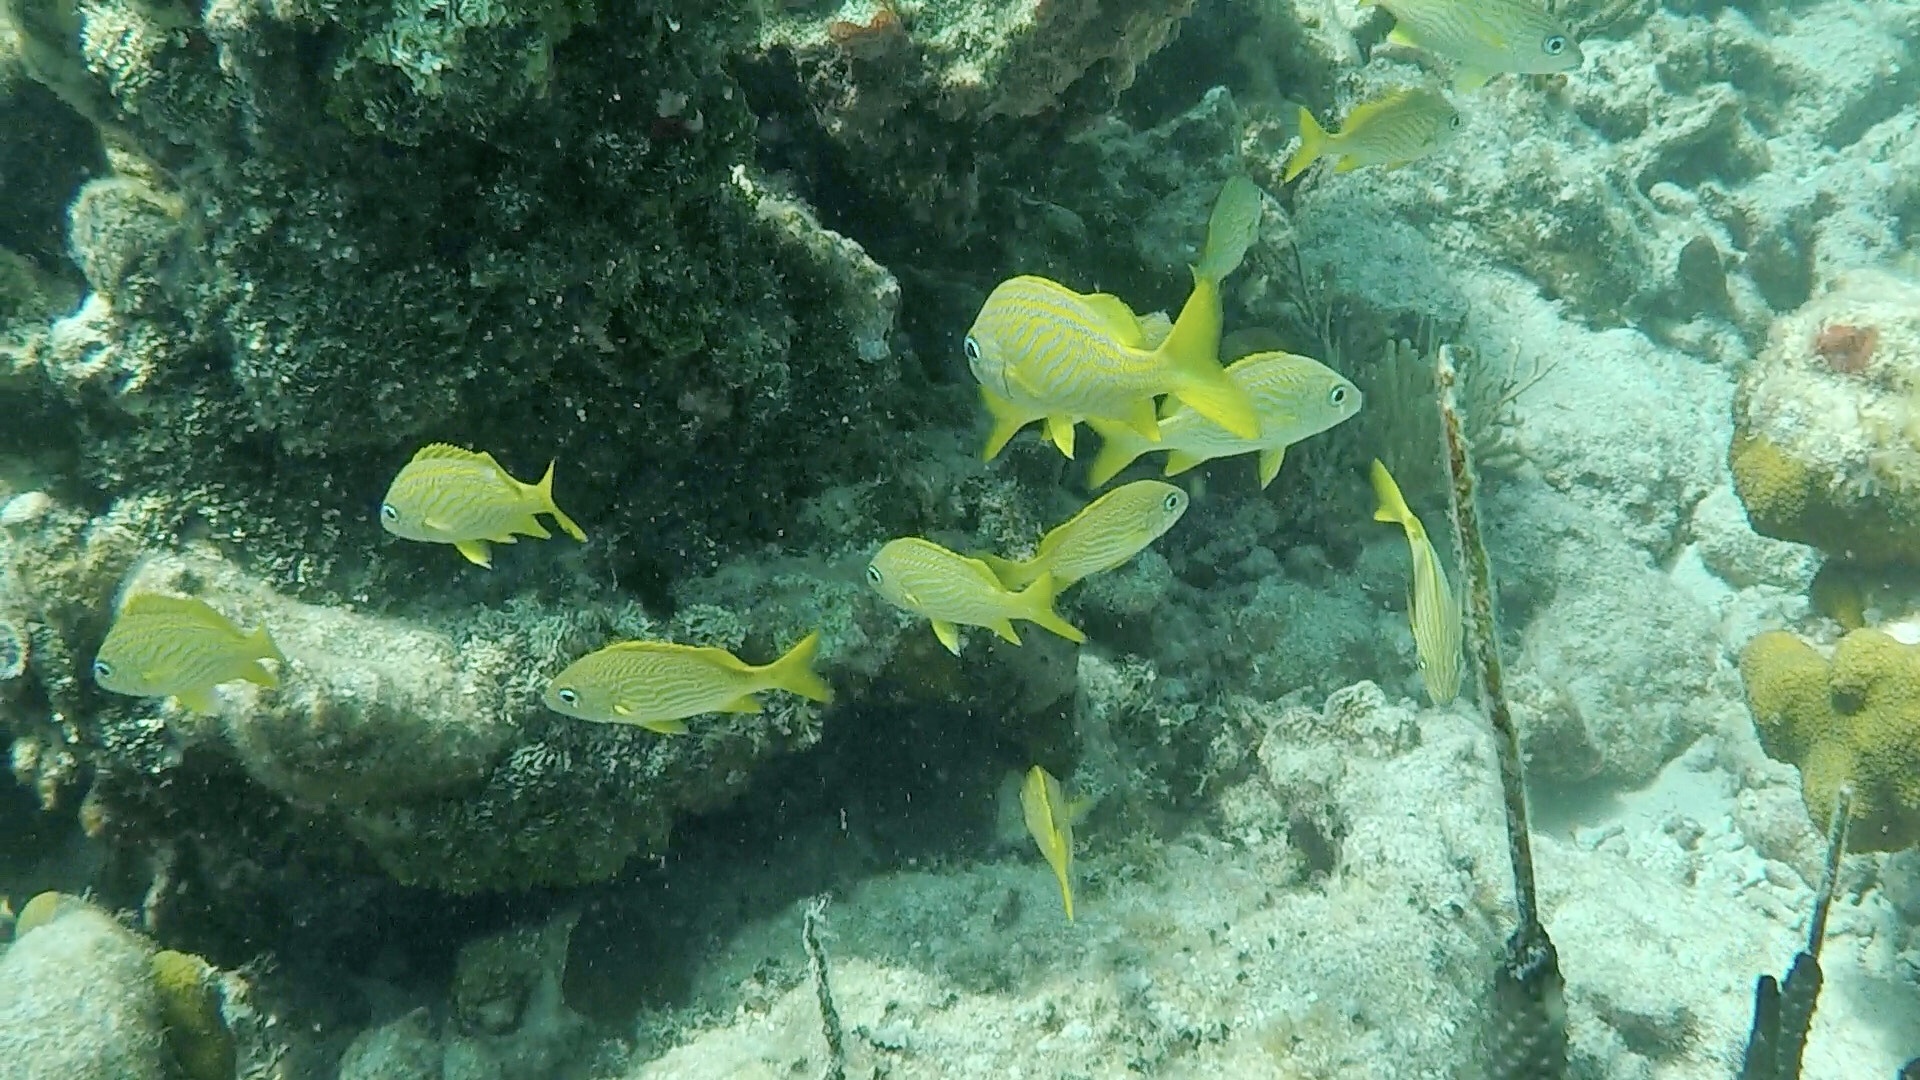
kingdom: Animalia
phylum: Chordata
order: Perciformes
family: Haemulidae
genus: Haemulon
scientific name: Haemulon flavolineatum
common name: French grunt
